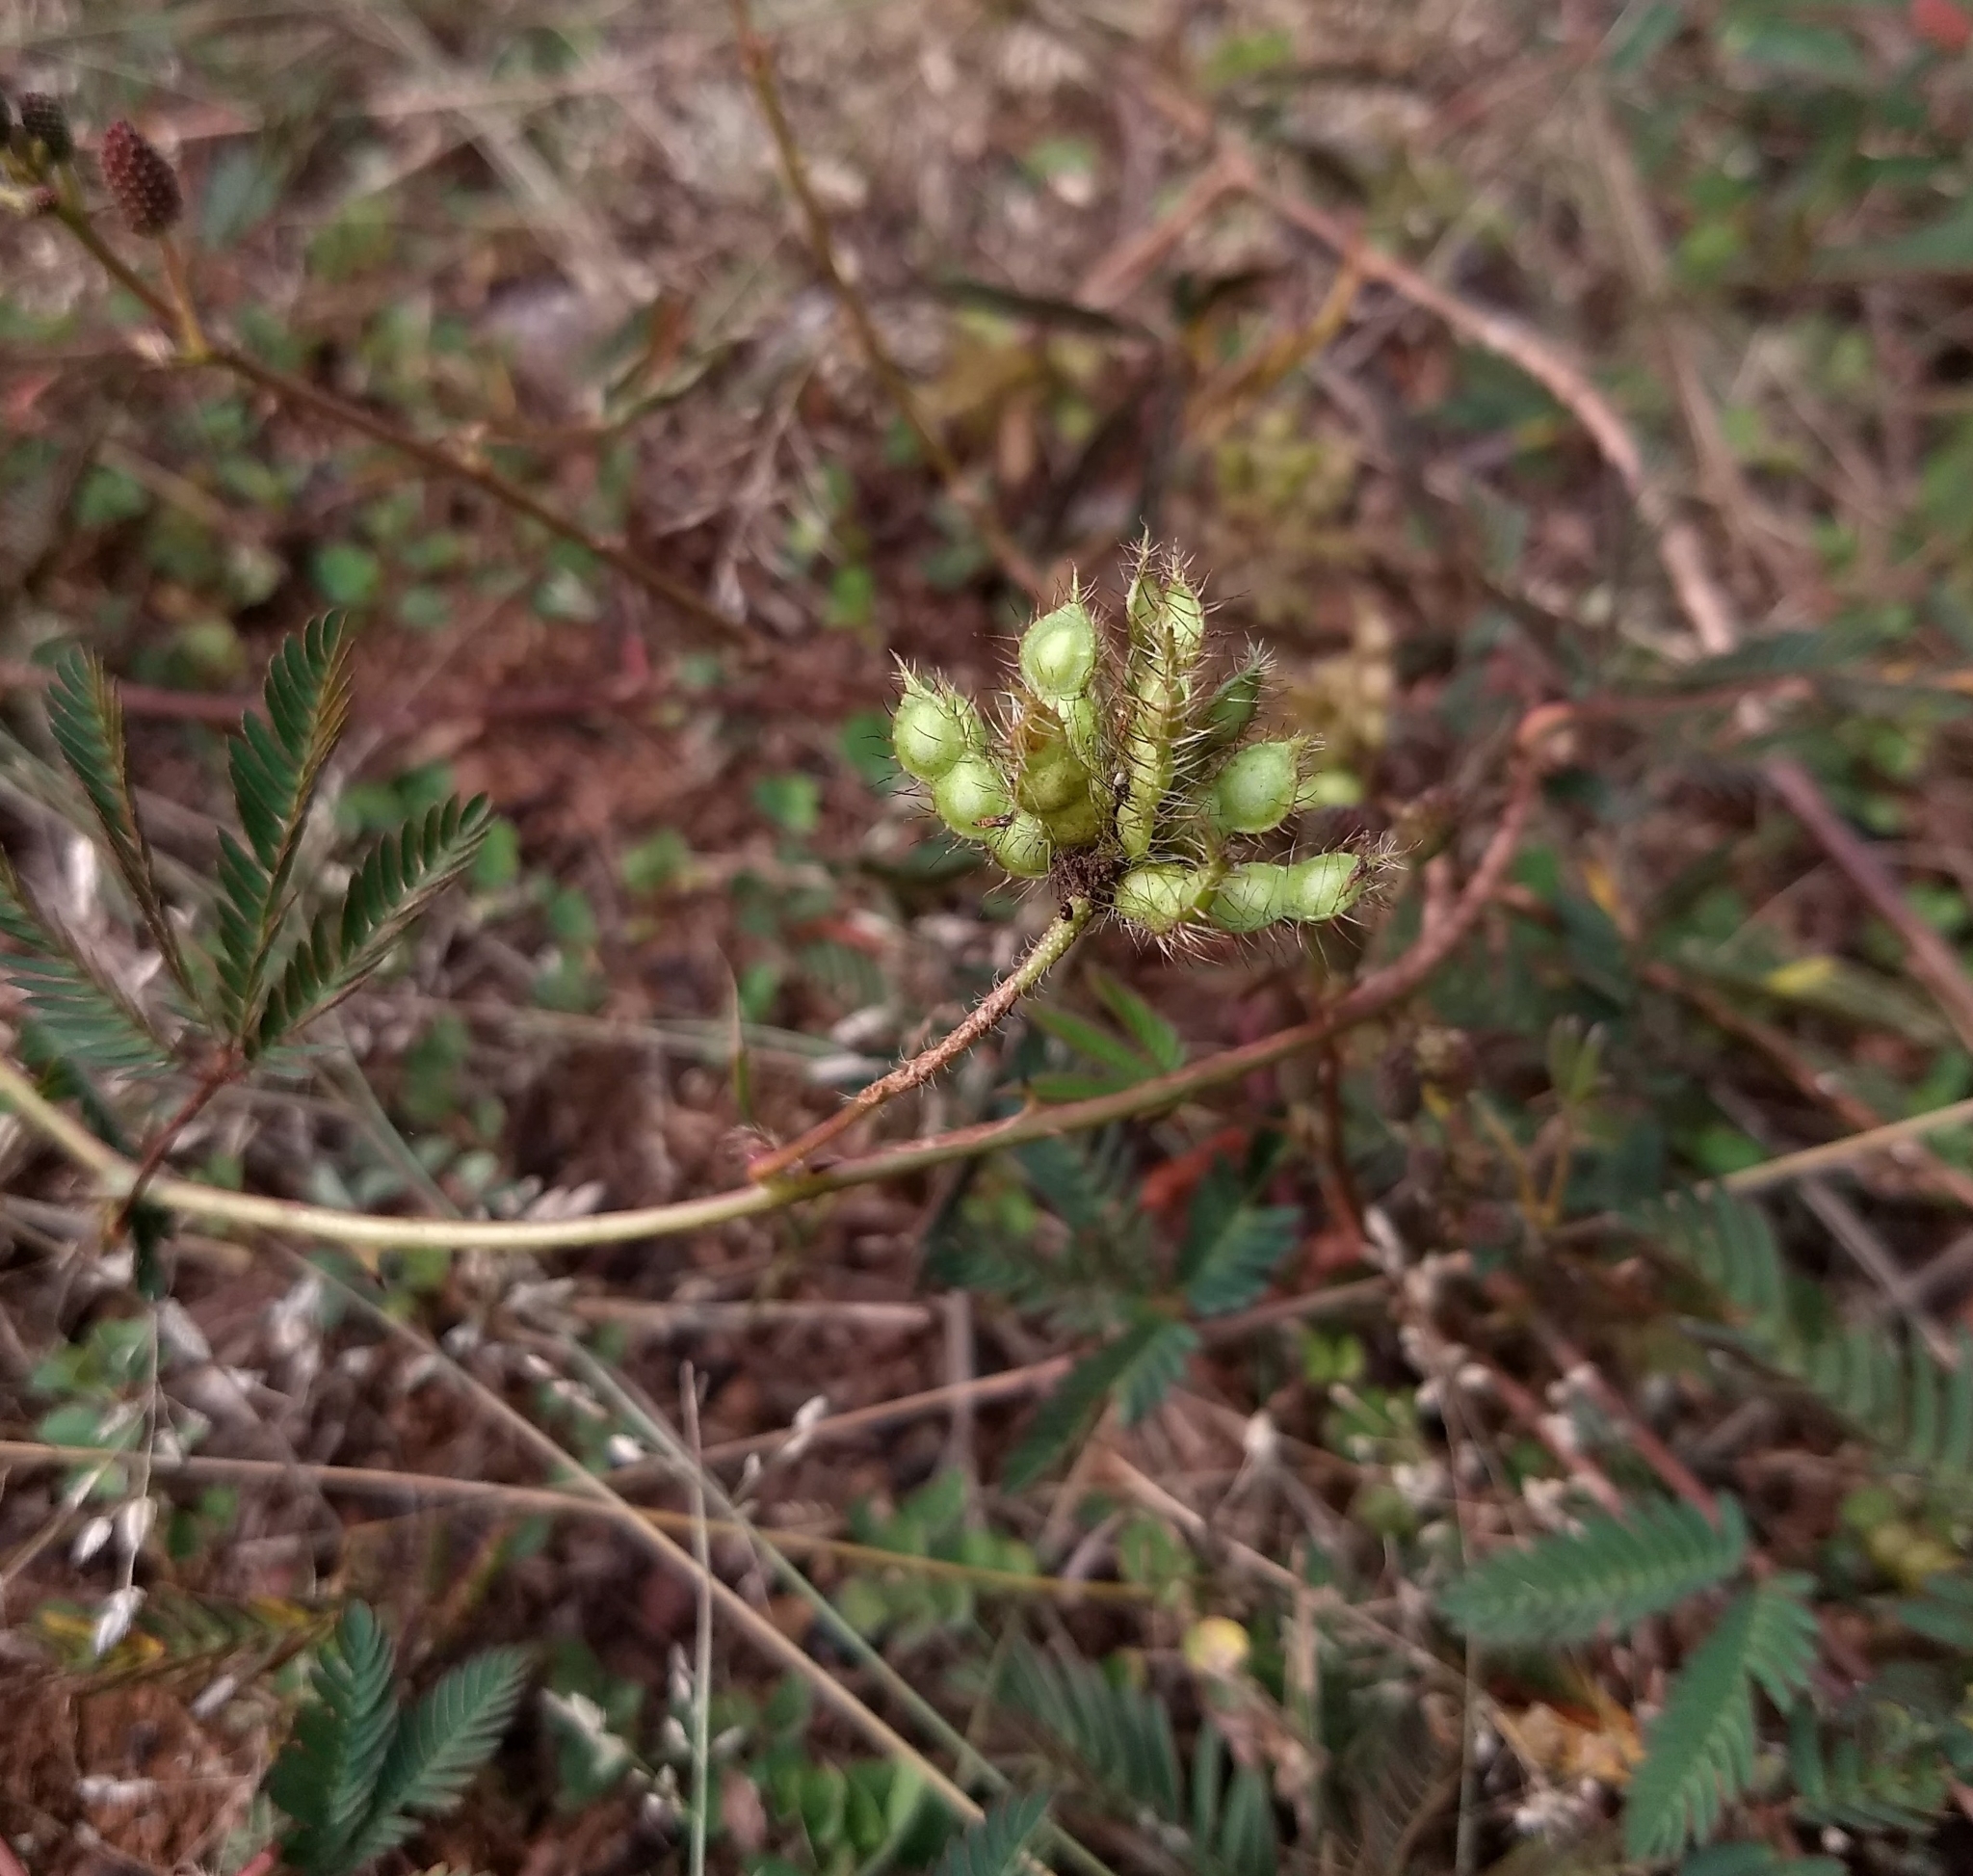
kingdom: Plantae
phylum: Tracheophyta
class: Magnoliopsida
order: Fabales
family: Fabaceae
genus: Mimosa
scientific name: Mimosa pudica
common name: Sensitive plant
